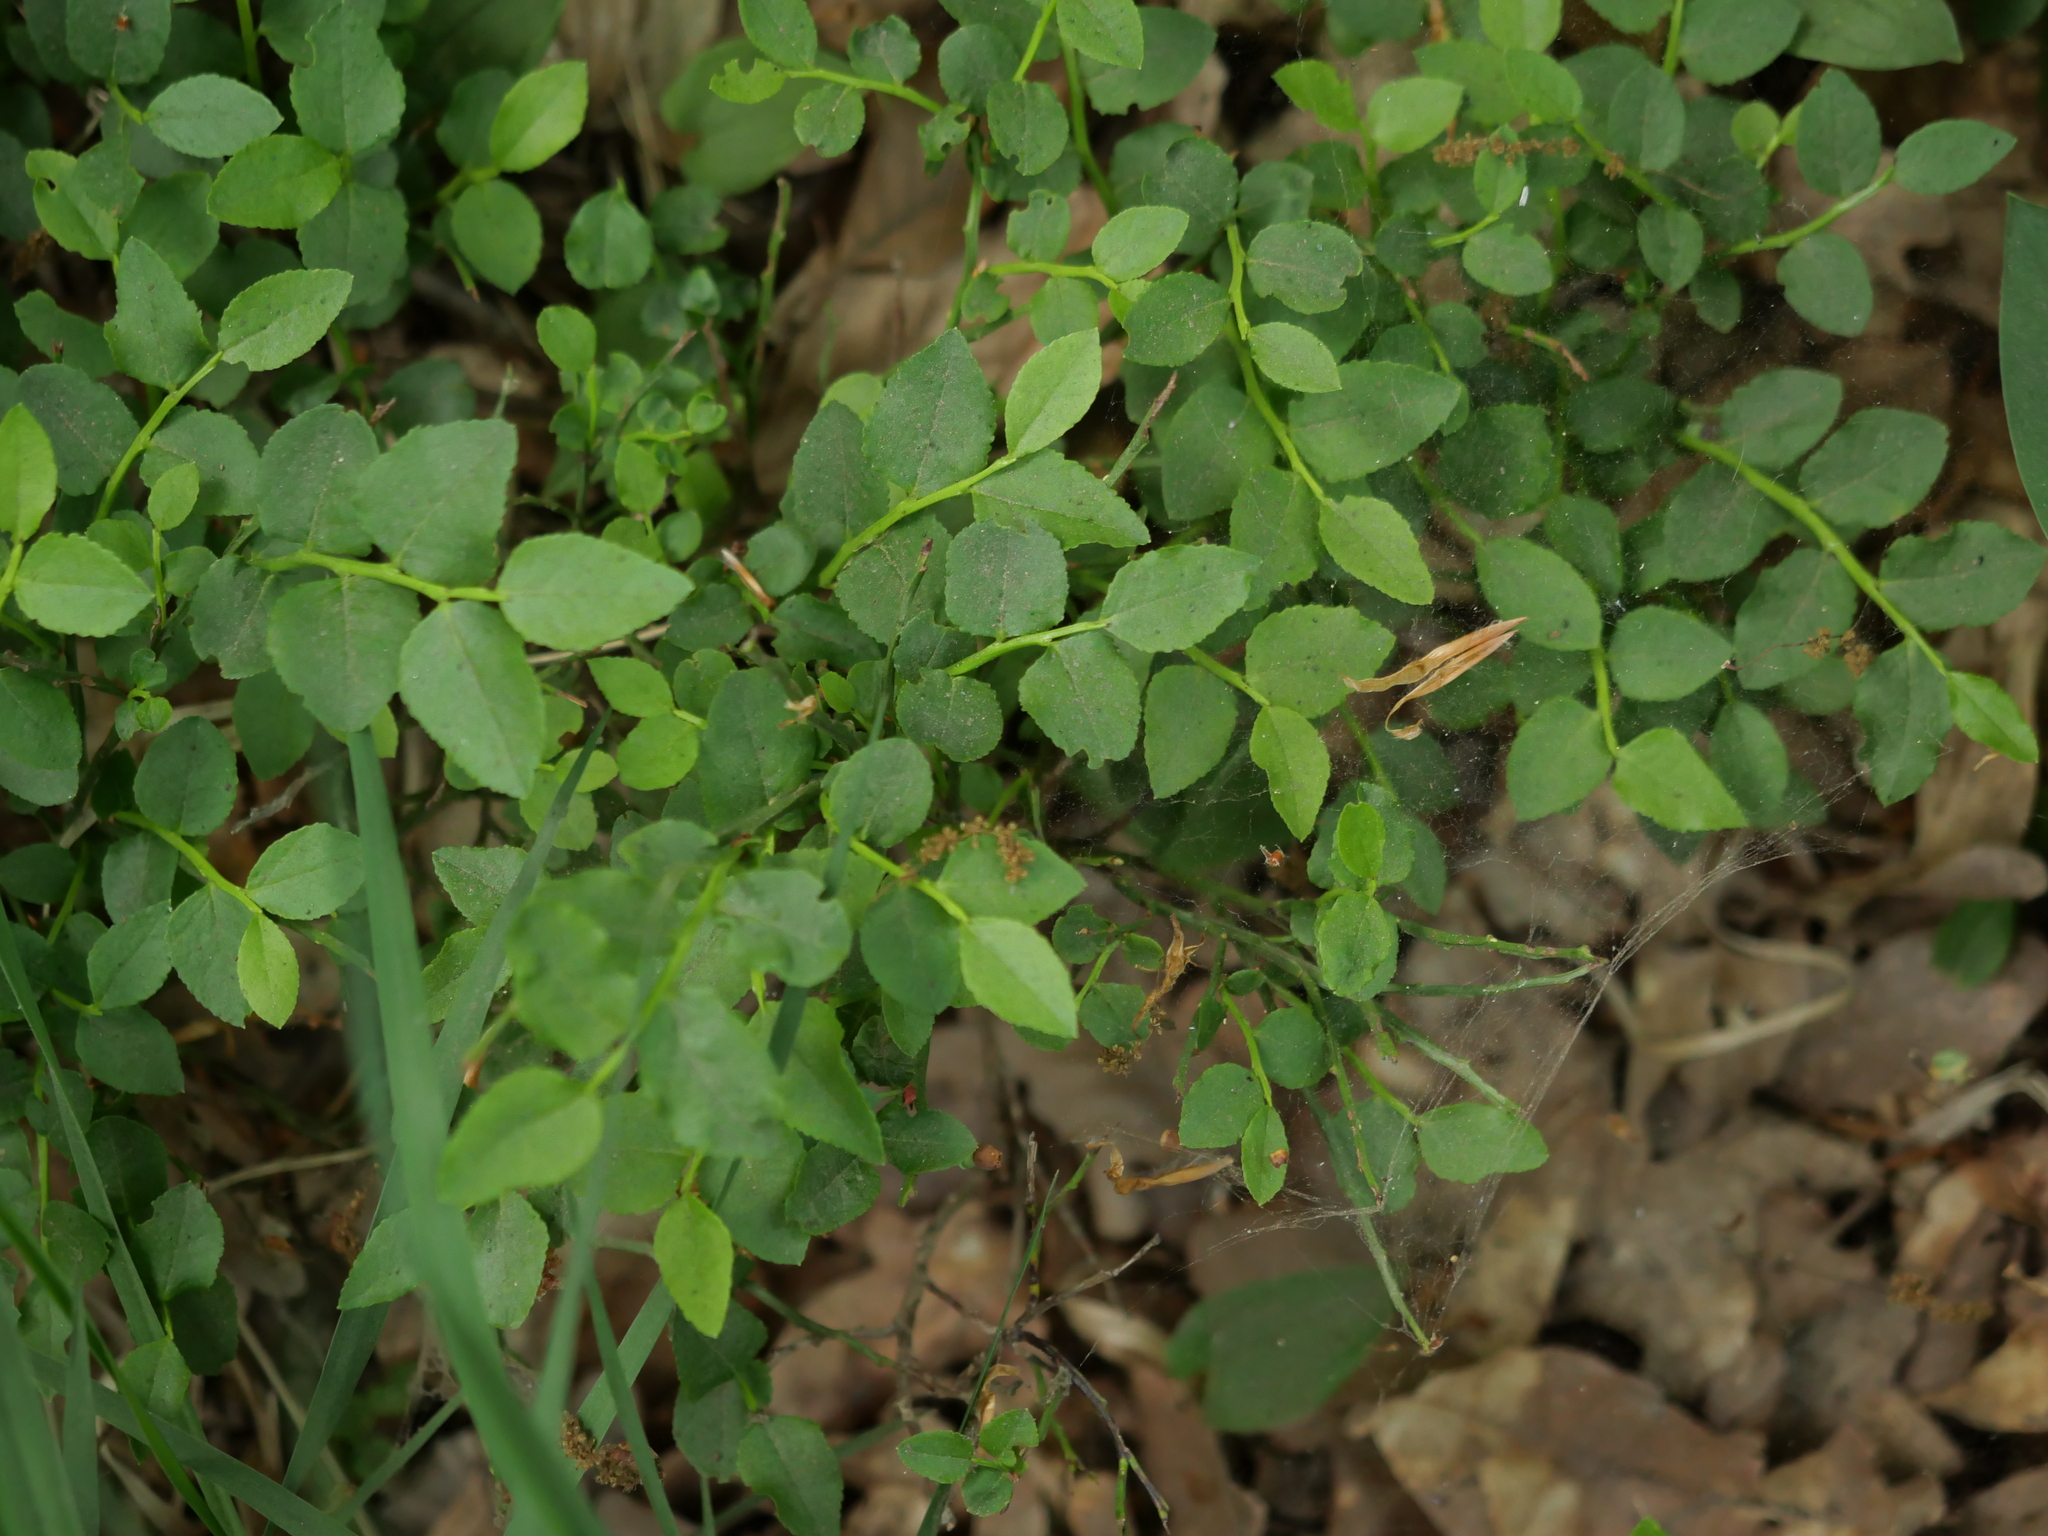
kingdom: Plantae
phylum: Tracheophyta
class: Magnoliopsida
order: Ericales
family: Ericaceae
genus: Vaccinium
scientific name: Vaccinium myrtillus
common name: Bilberry
